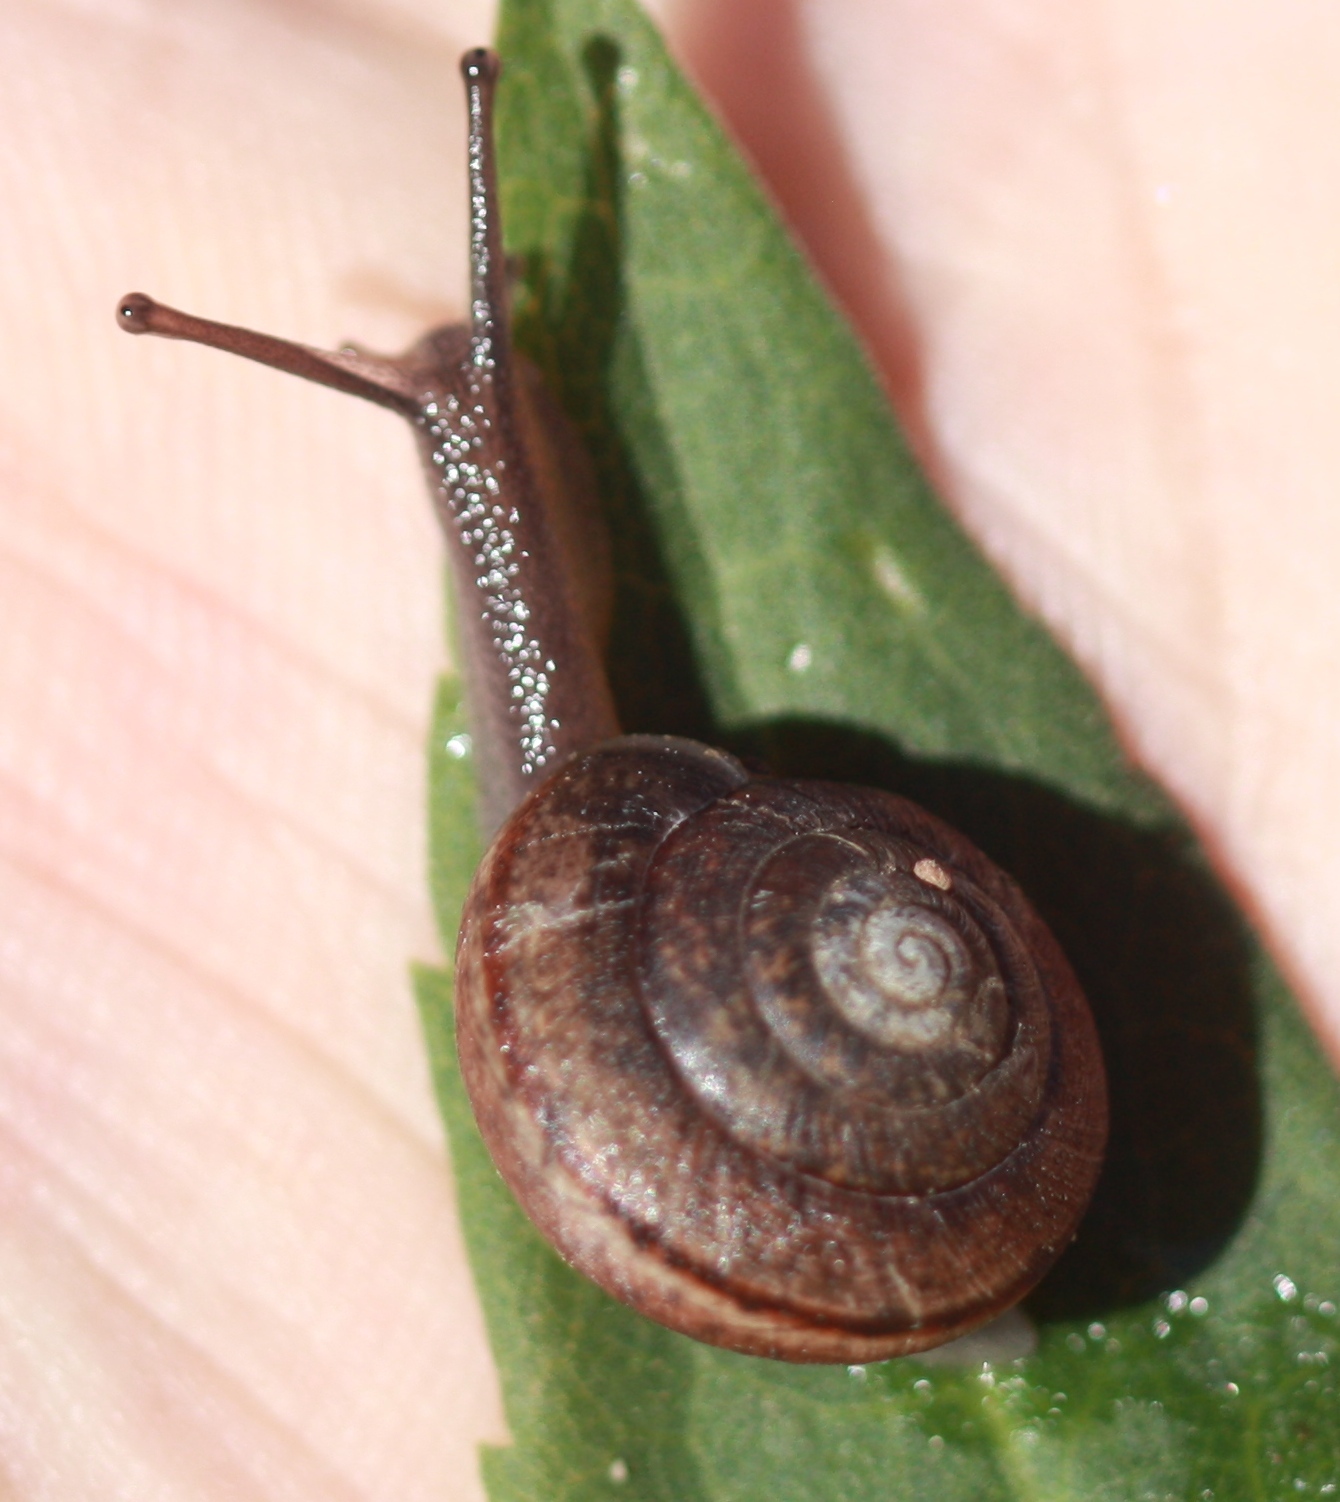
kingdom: Animalia
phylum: Mollusca
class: Gastropoda
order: Stylommatophora
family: Xanthonychidae
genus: Helminthoglypta
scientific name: Helminthoglypta arrosa
